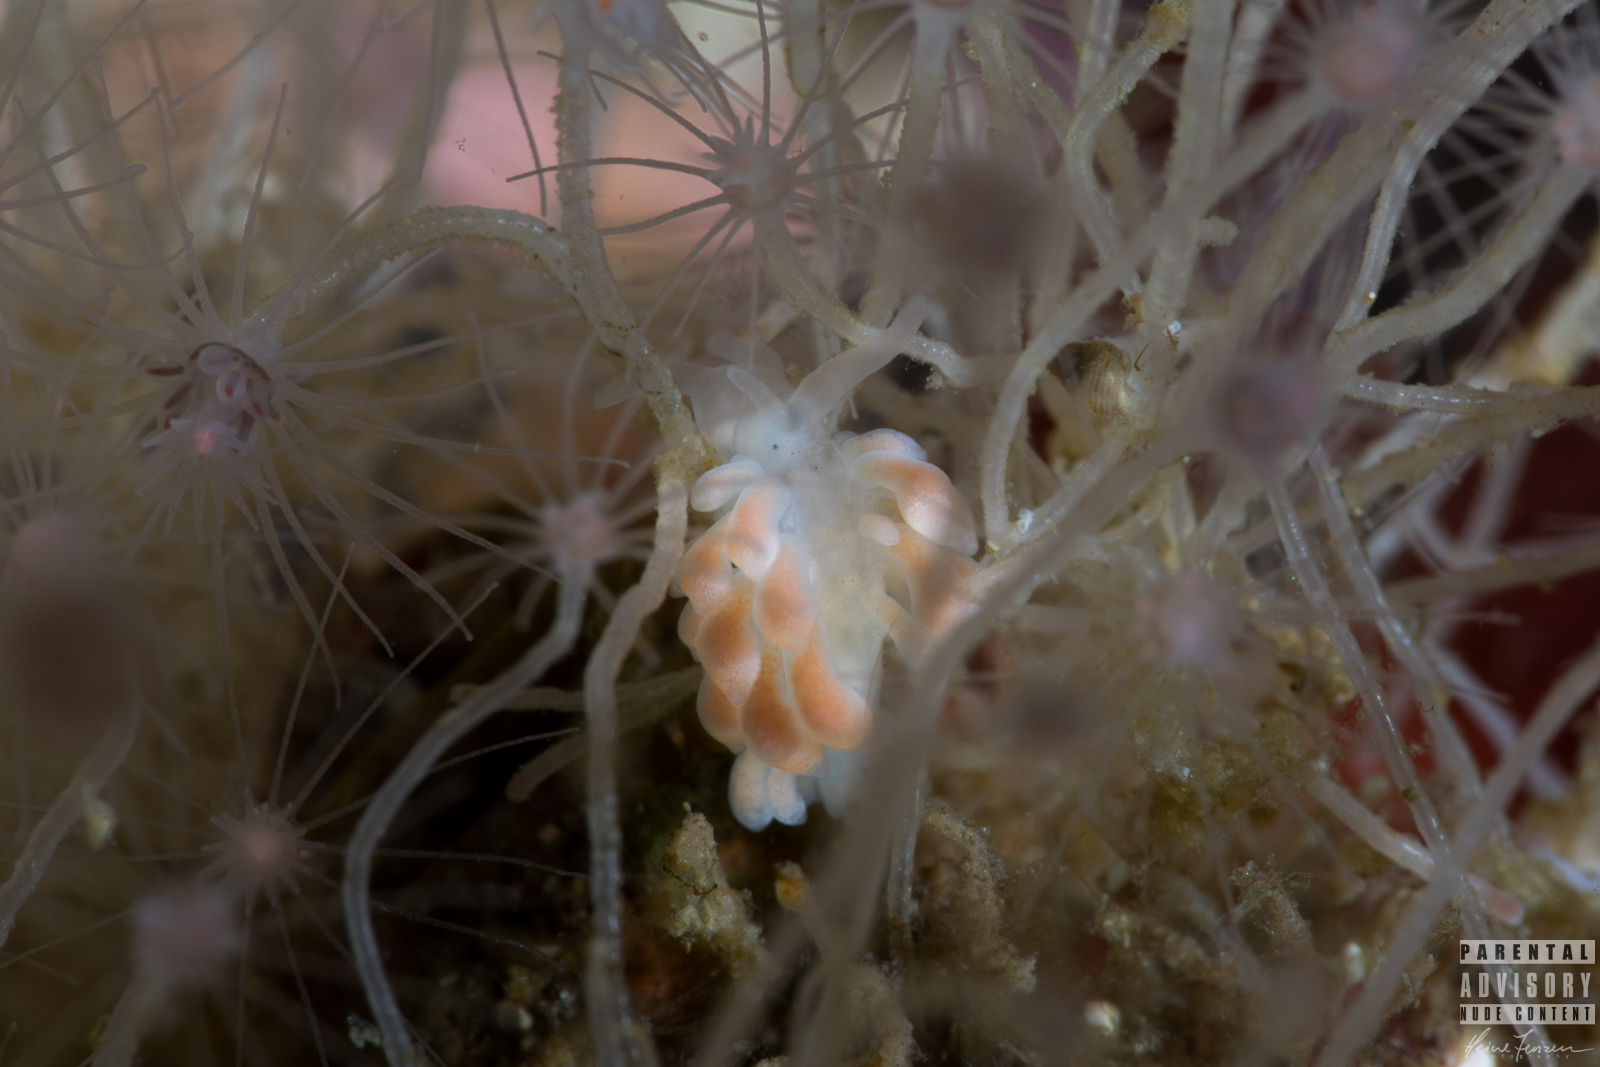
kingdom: Animalia
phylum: Mollusca
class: Gastropoda
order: Nudibranchia
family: Trinchesiidae
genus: Catriona
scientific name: Catriona aurantia
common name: Corange-tip cuthona
